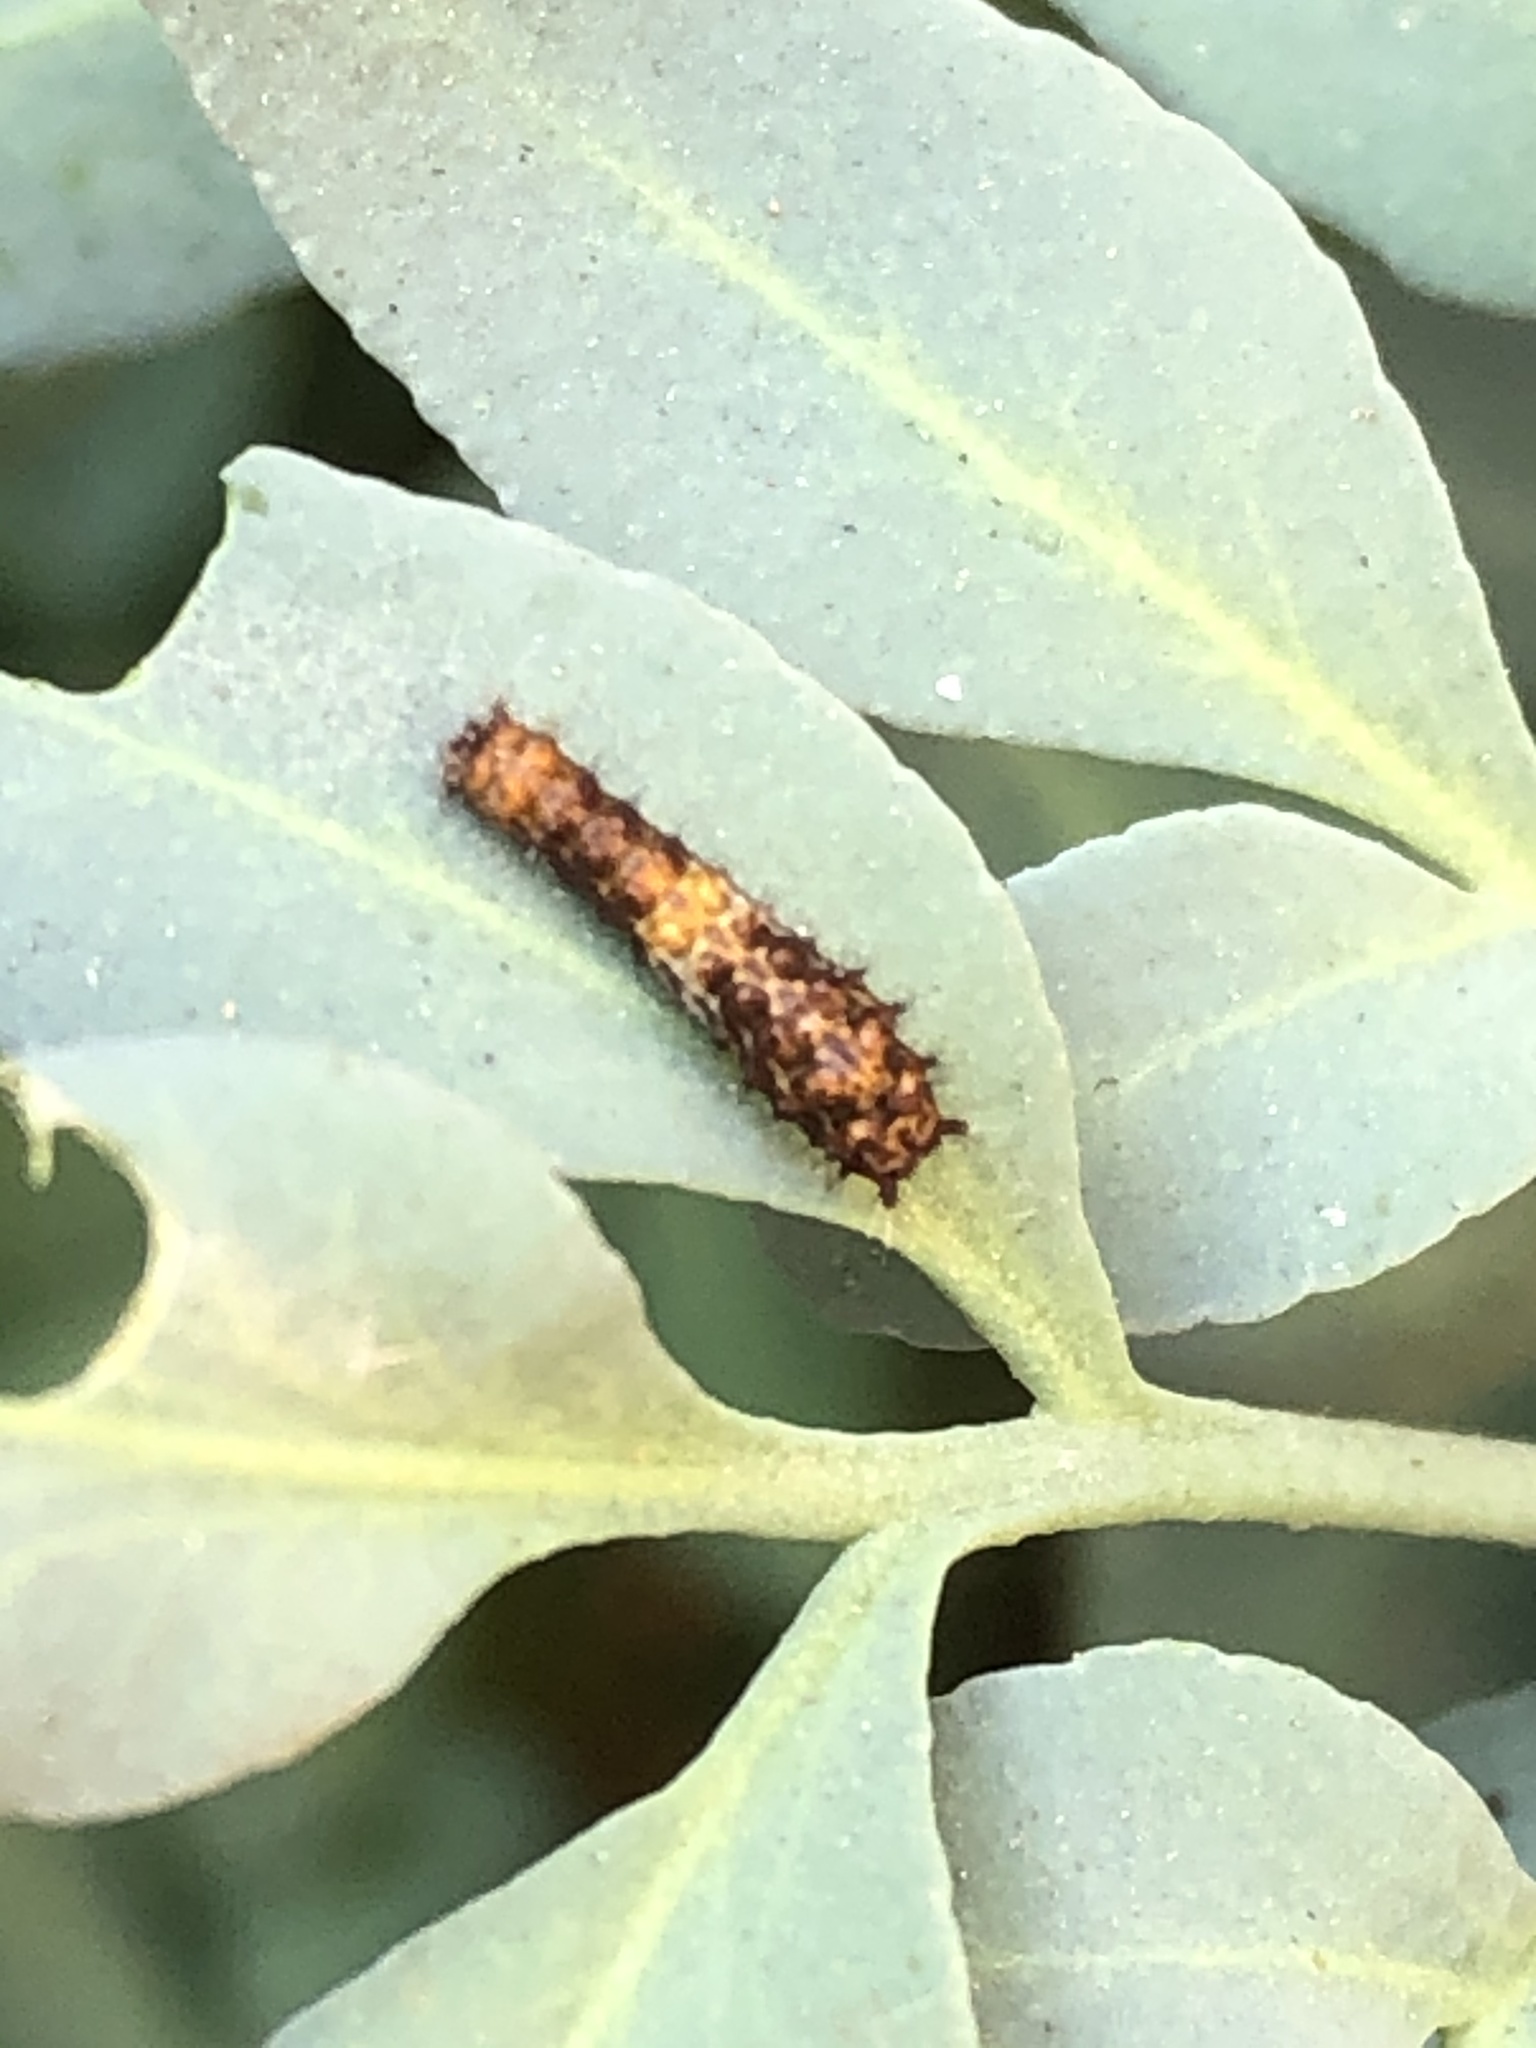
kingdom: Animalia
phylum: Arthropoda
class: Insecta
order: Lepidoptera
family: Papilionidae
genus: Heraclides
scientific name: Heraclides pallas
